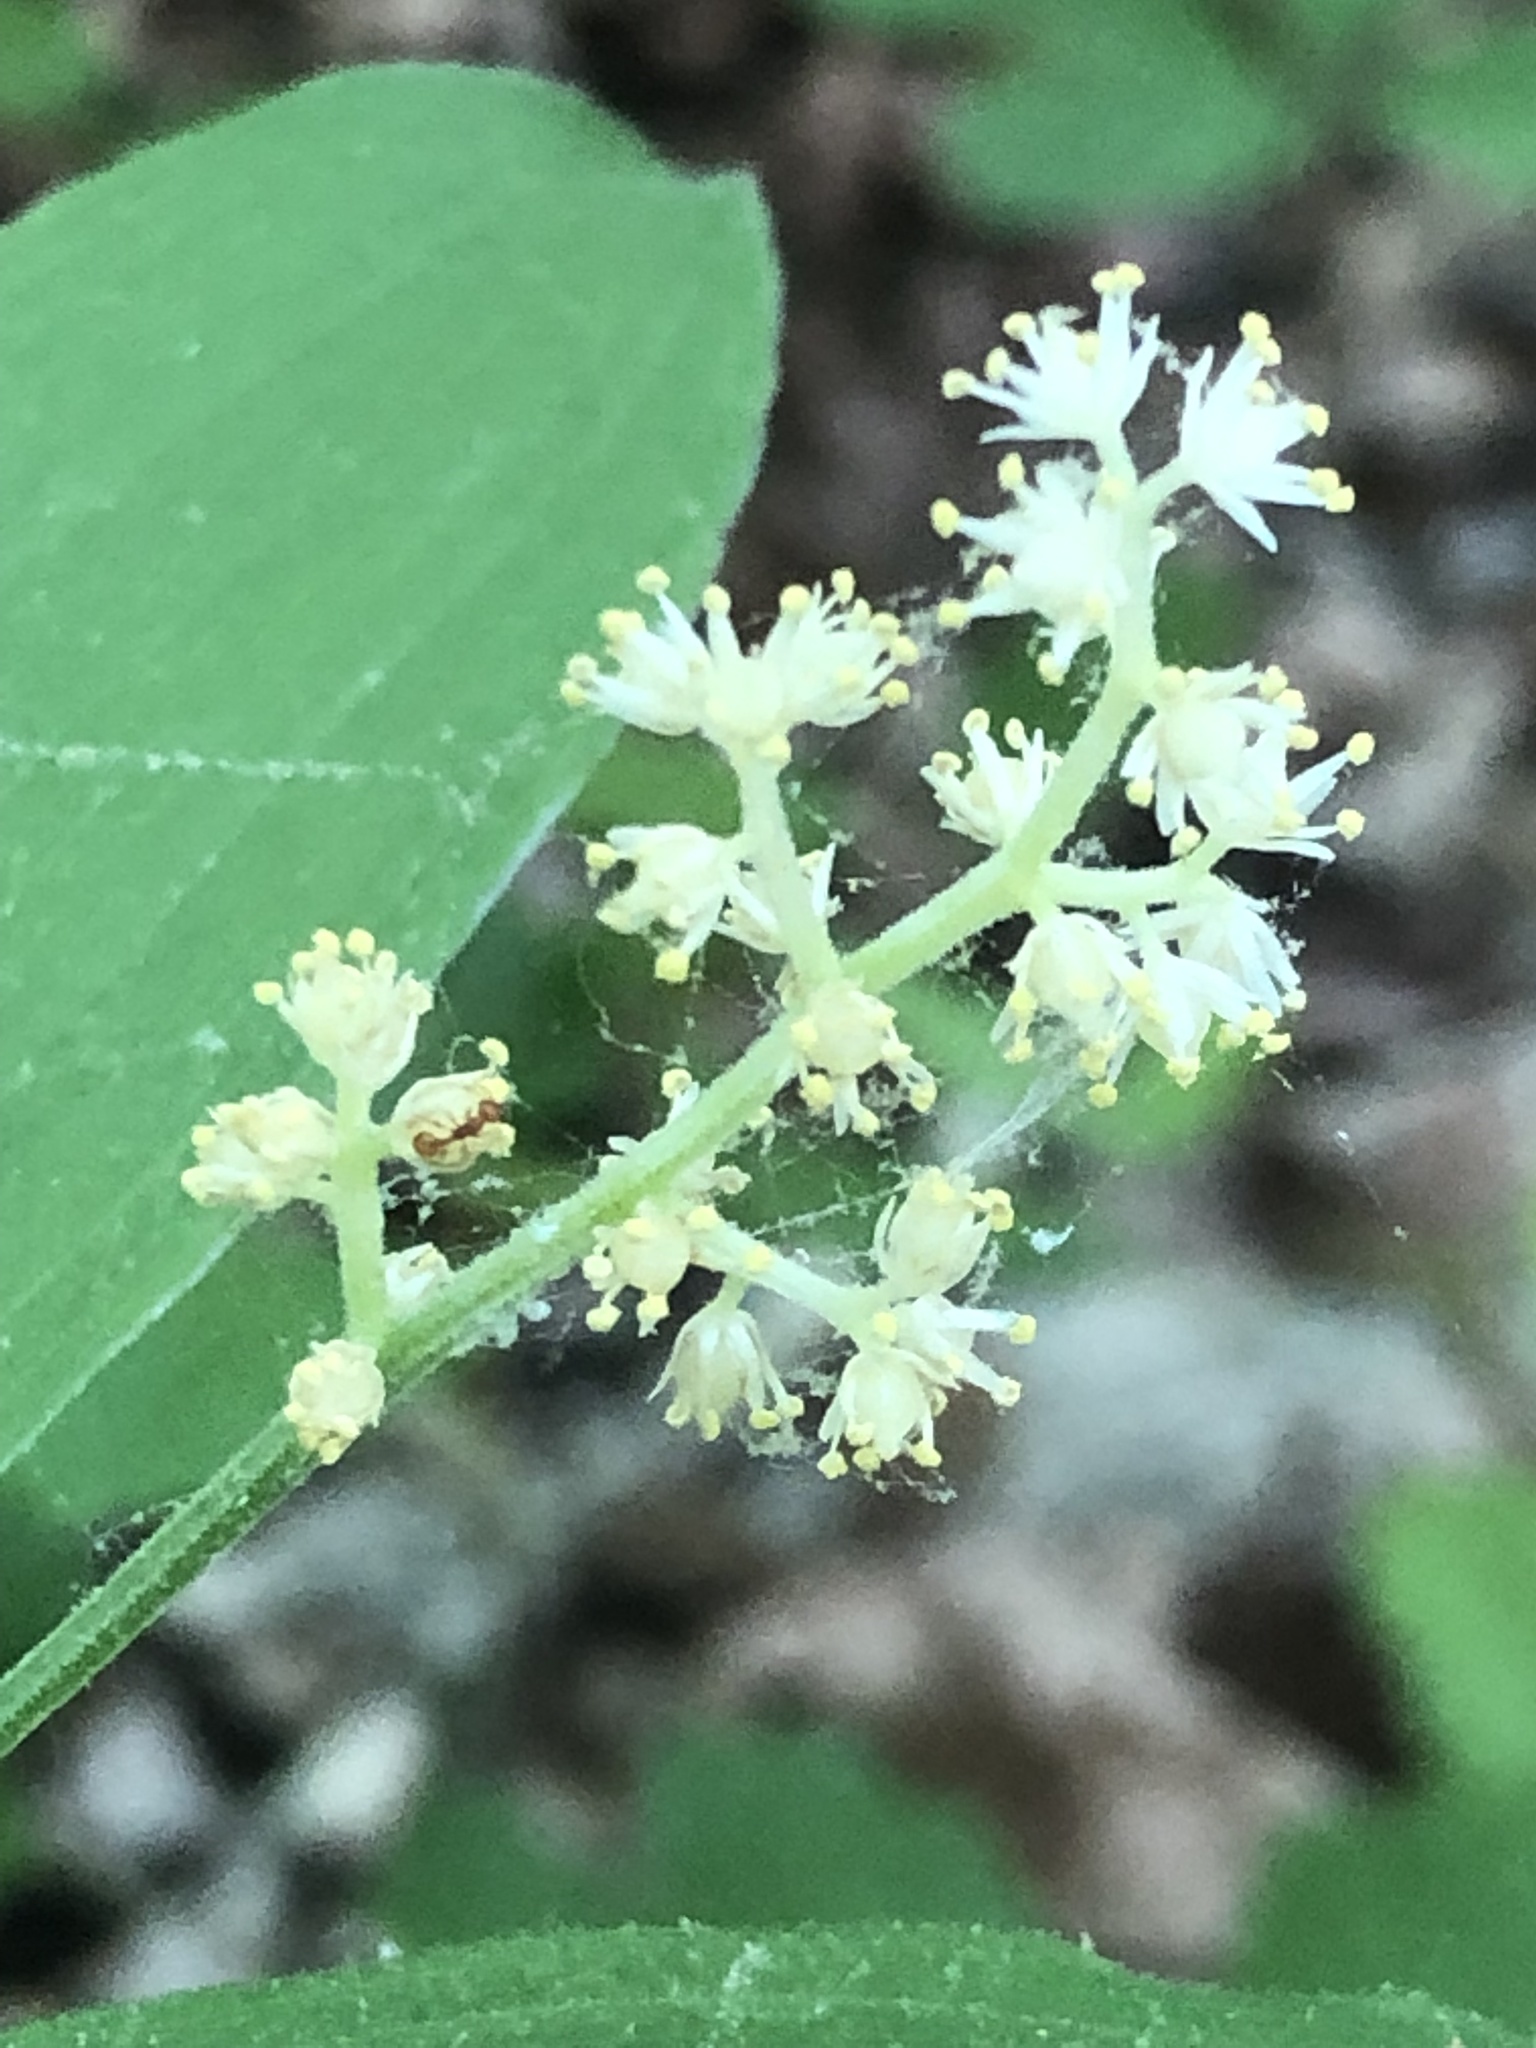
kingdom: Plantae
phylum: Tracheophyta
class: Liliopsida
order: Asparagales
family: Asparagaceae
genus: Maianthemum
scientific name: Maianthemum racemosum
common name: False spikenard
